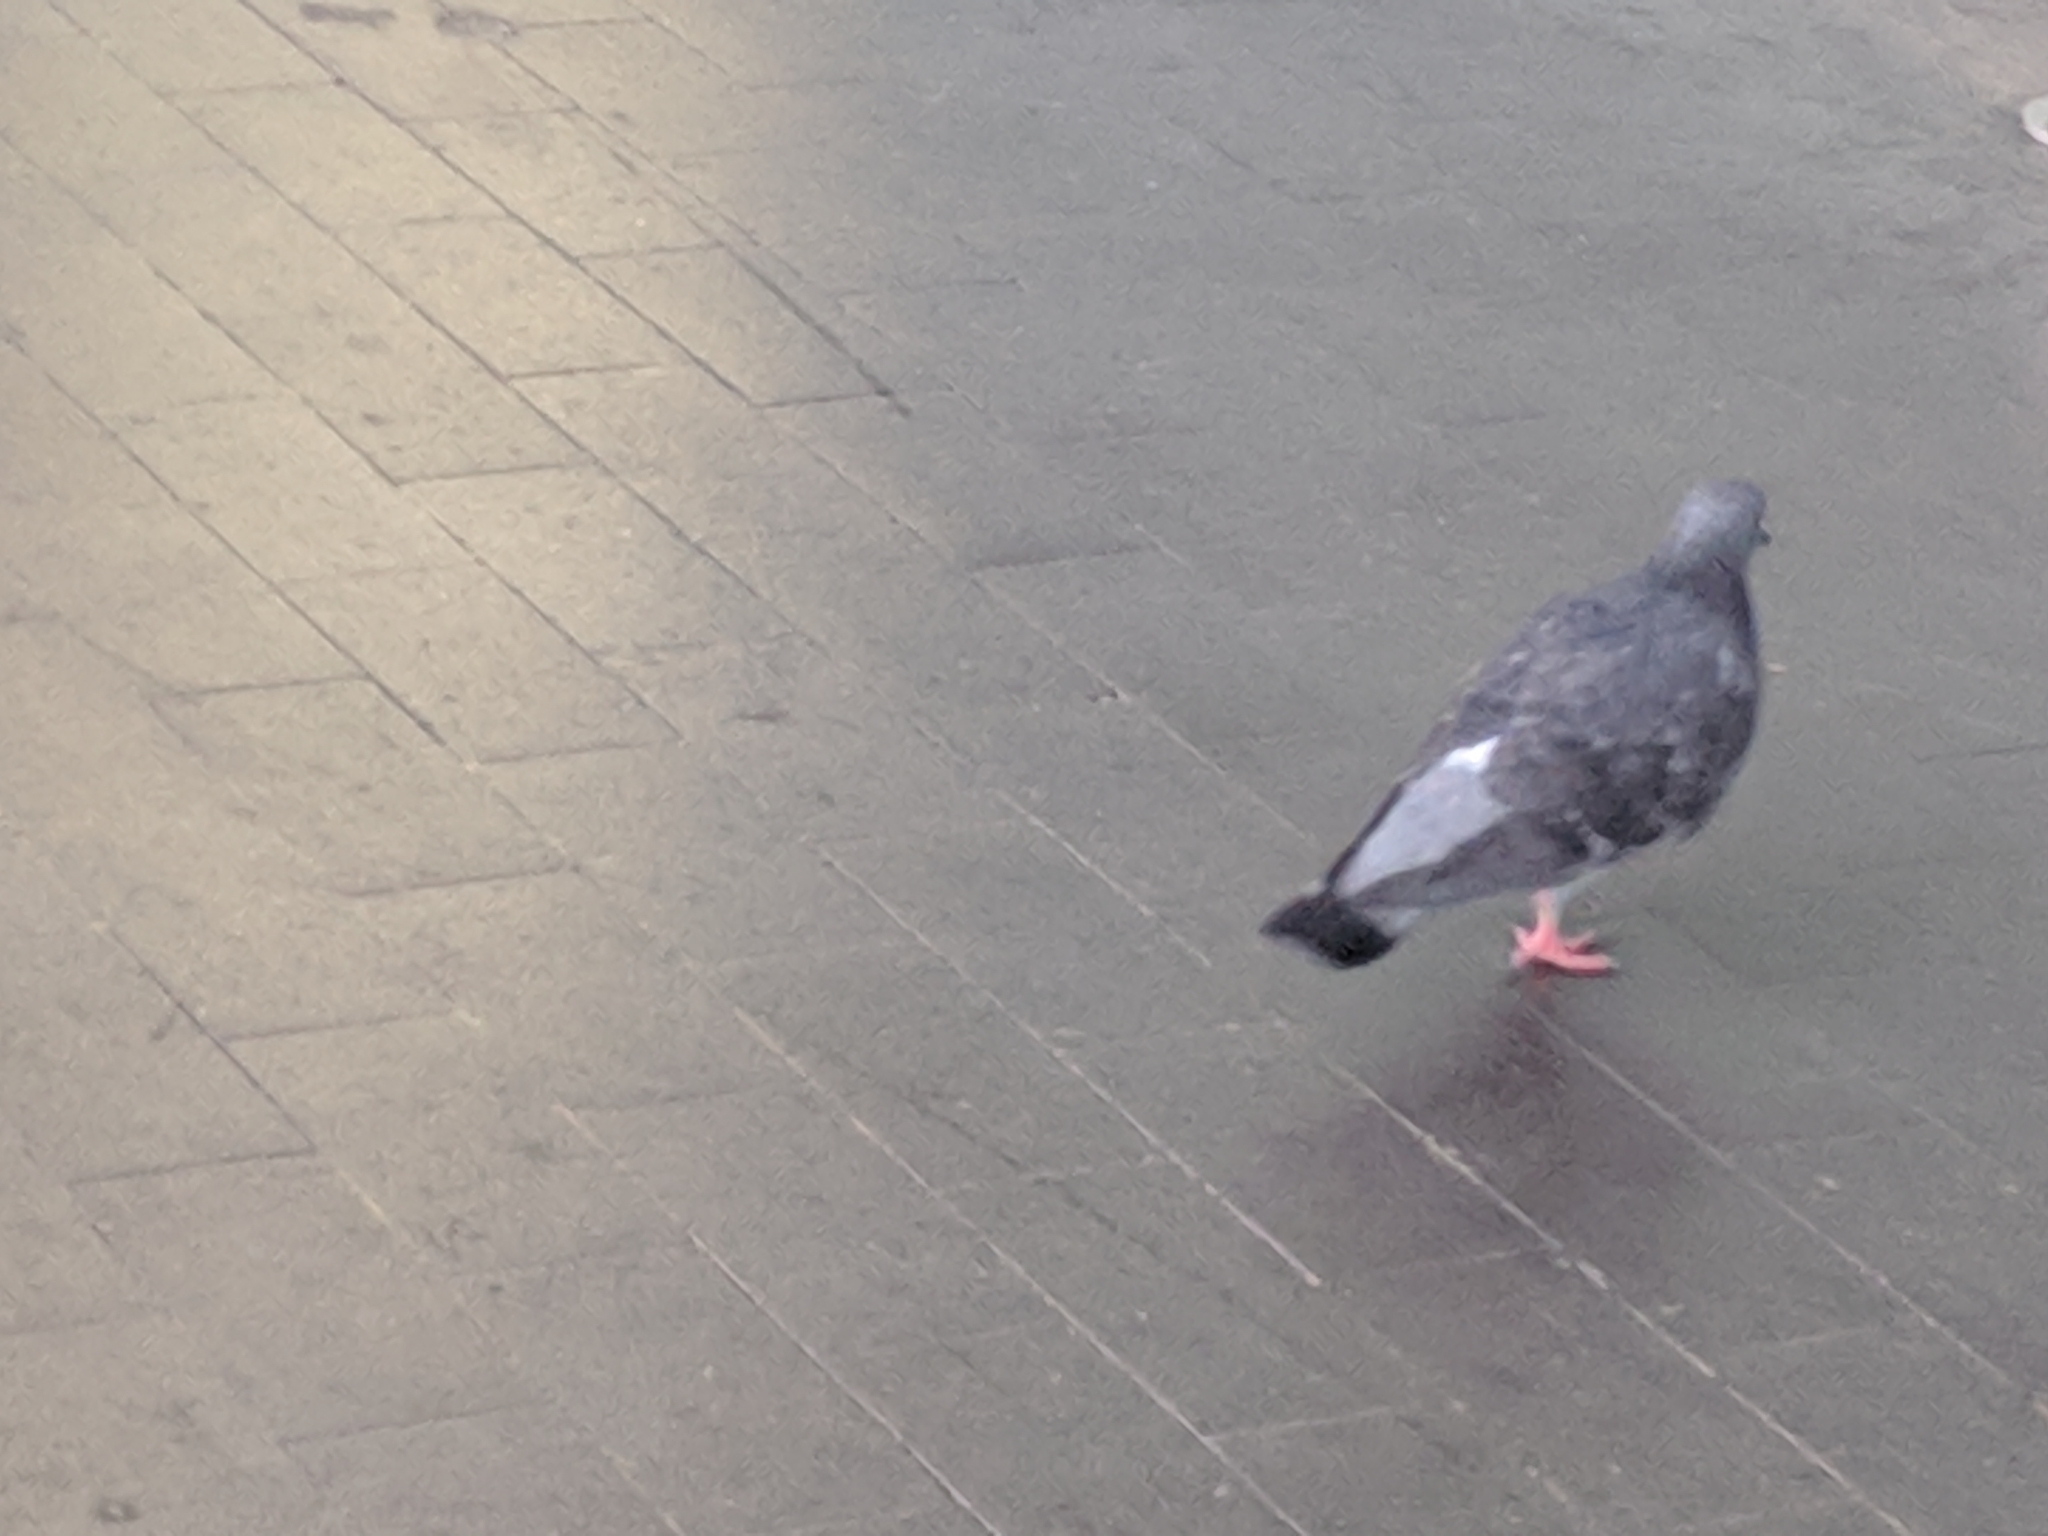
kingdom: Animalia
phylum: Chordata
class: Aves
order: Columbiformes
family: Columbidae
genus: Columba
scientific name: Columba livia
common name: Rock pigeon
